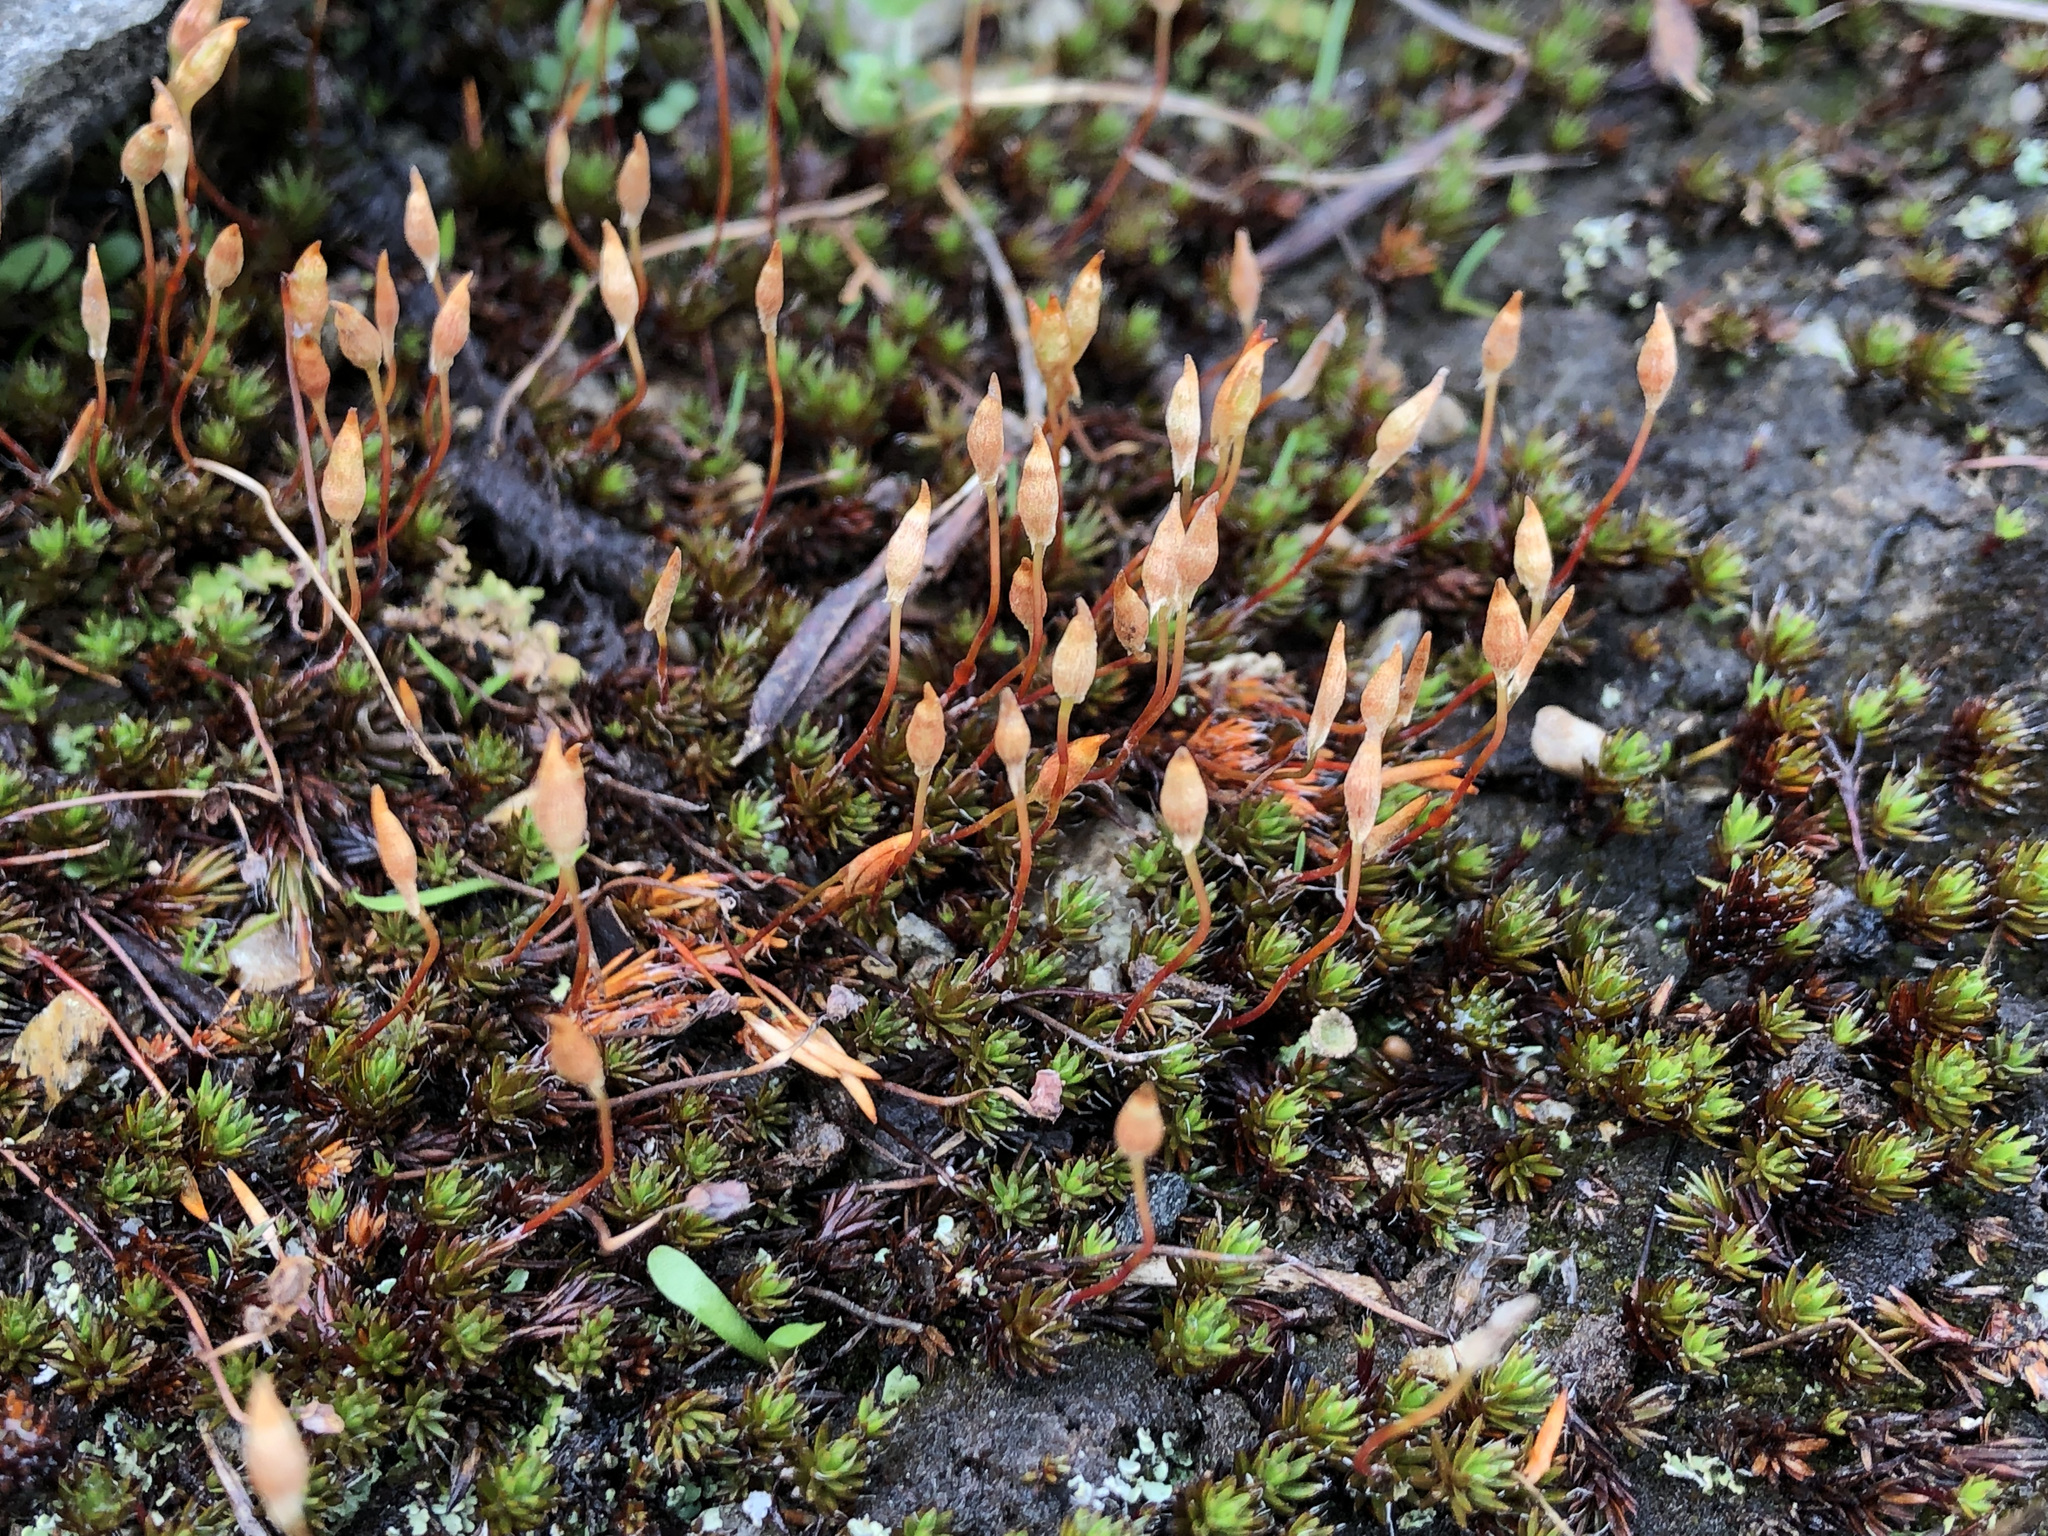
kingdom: Plantae
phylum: Bryophyta
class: Polytrichopsida
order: Polytrichales
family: Polytrichaceae
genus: Polytrichum
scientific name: Polytrichum piliferum
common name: Bristly haircap
